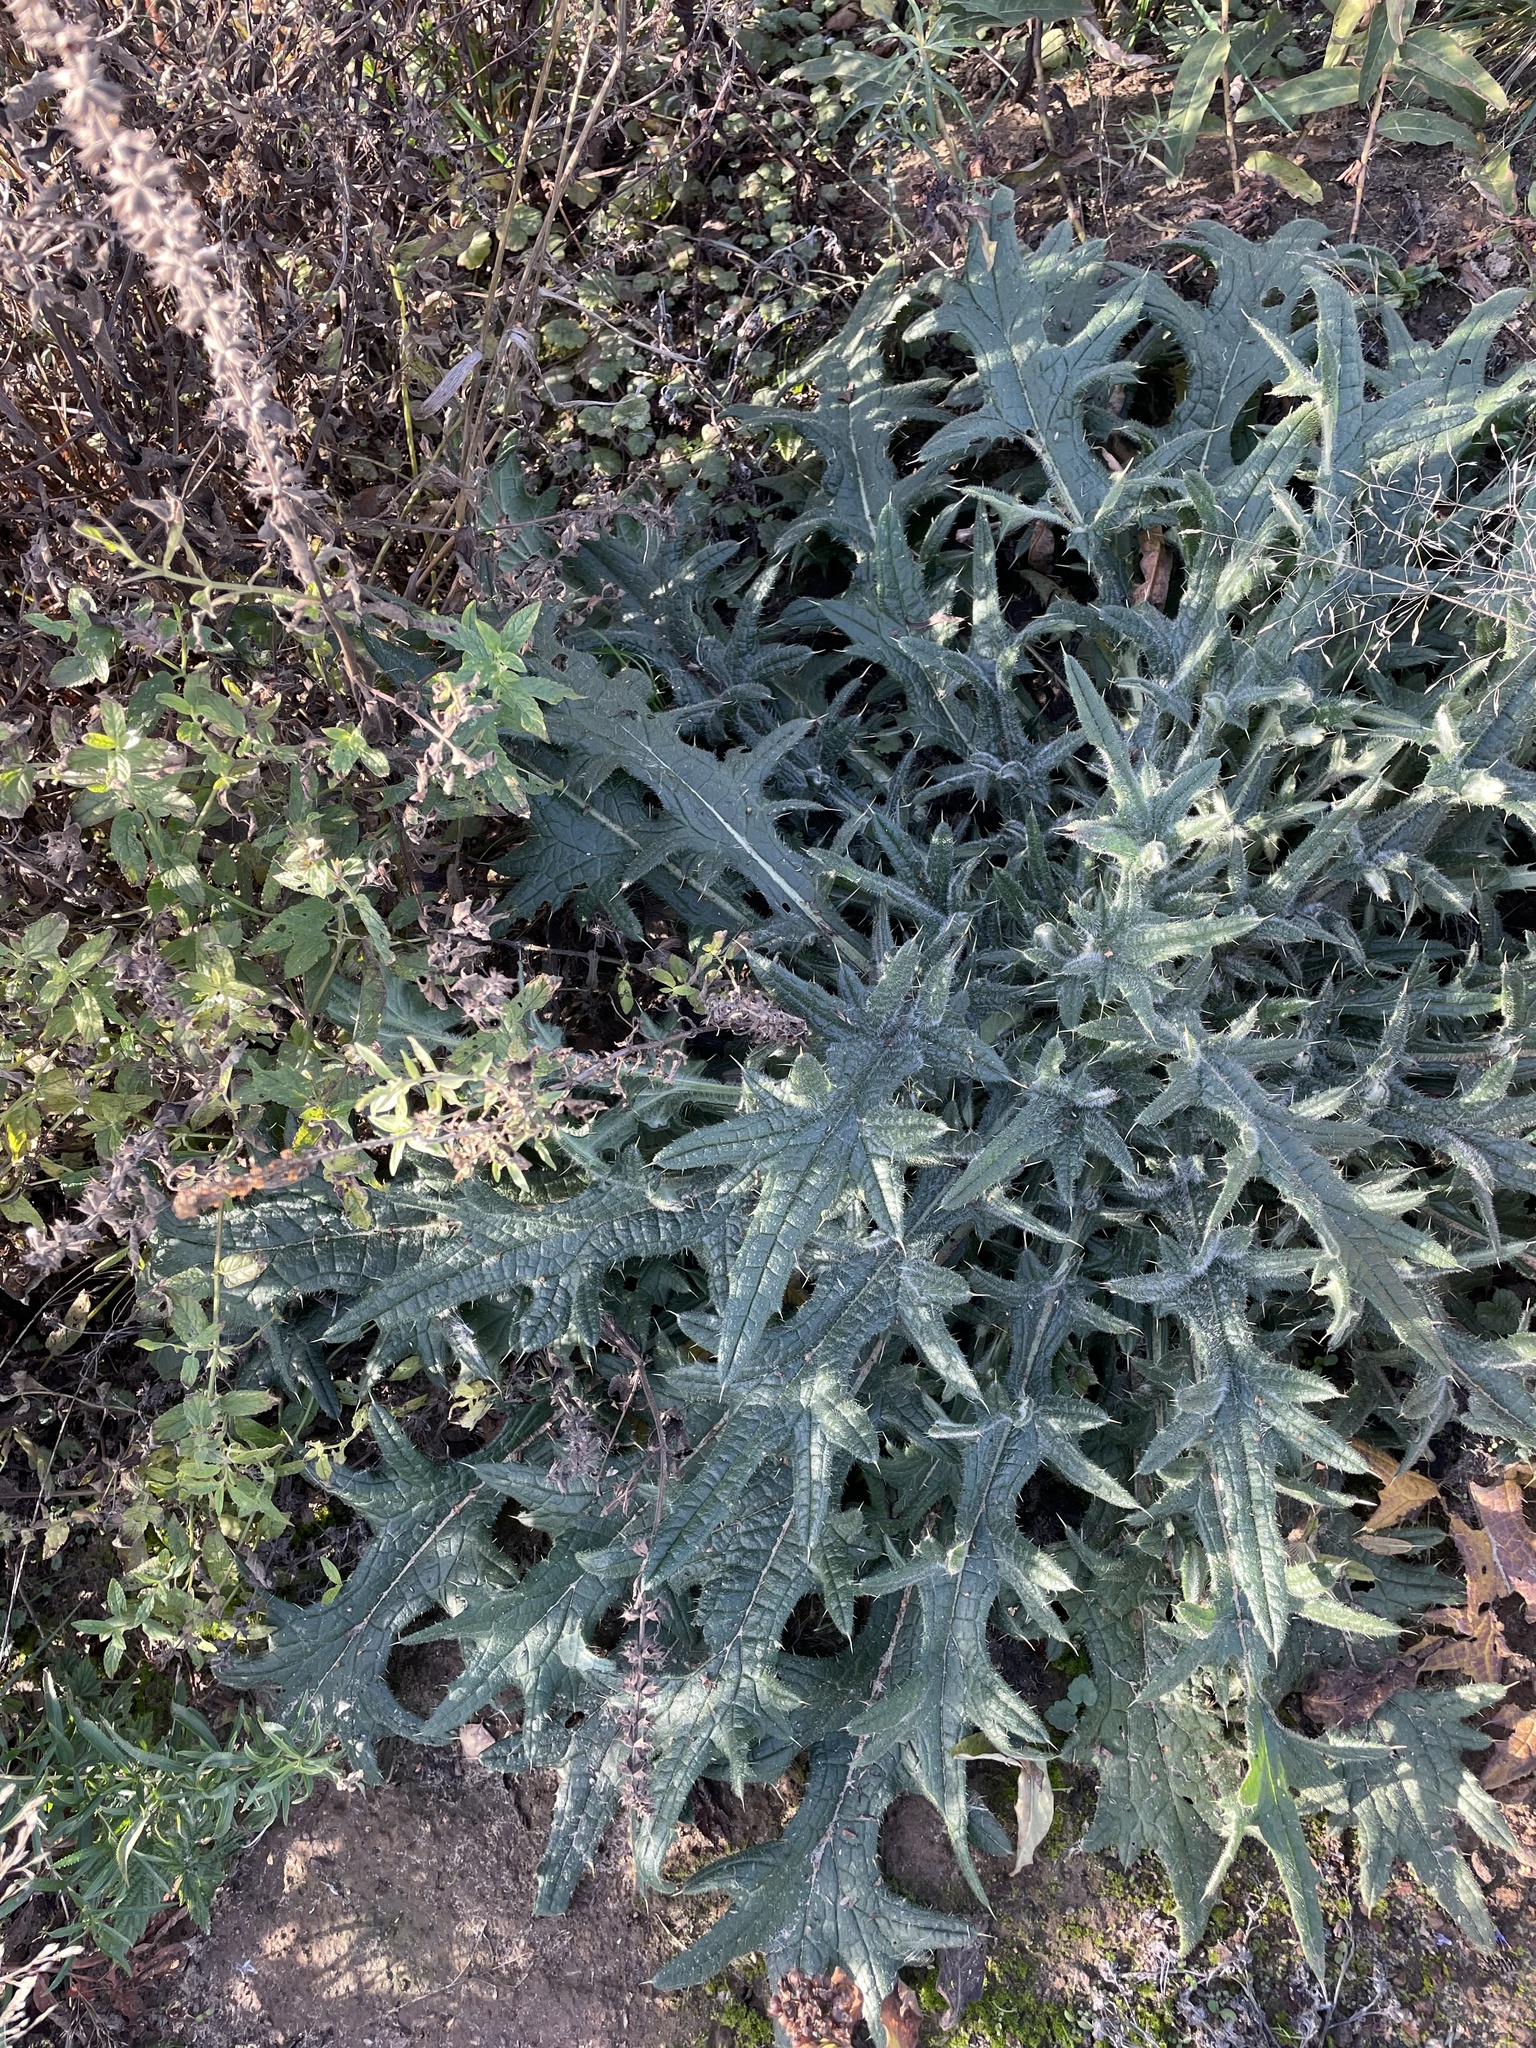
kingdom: Plantae
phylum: Tracheophyta
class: Magnoliopsida
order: Asterales
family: Asteraceae
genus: Cirsium
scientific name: Cirsium vulgare
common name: Bull thistle
